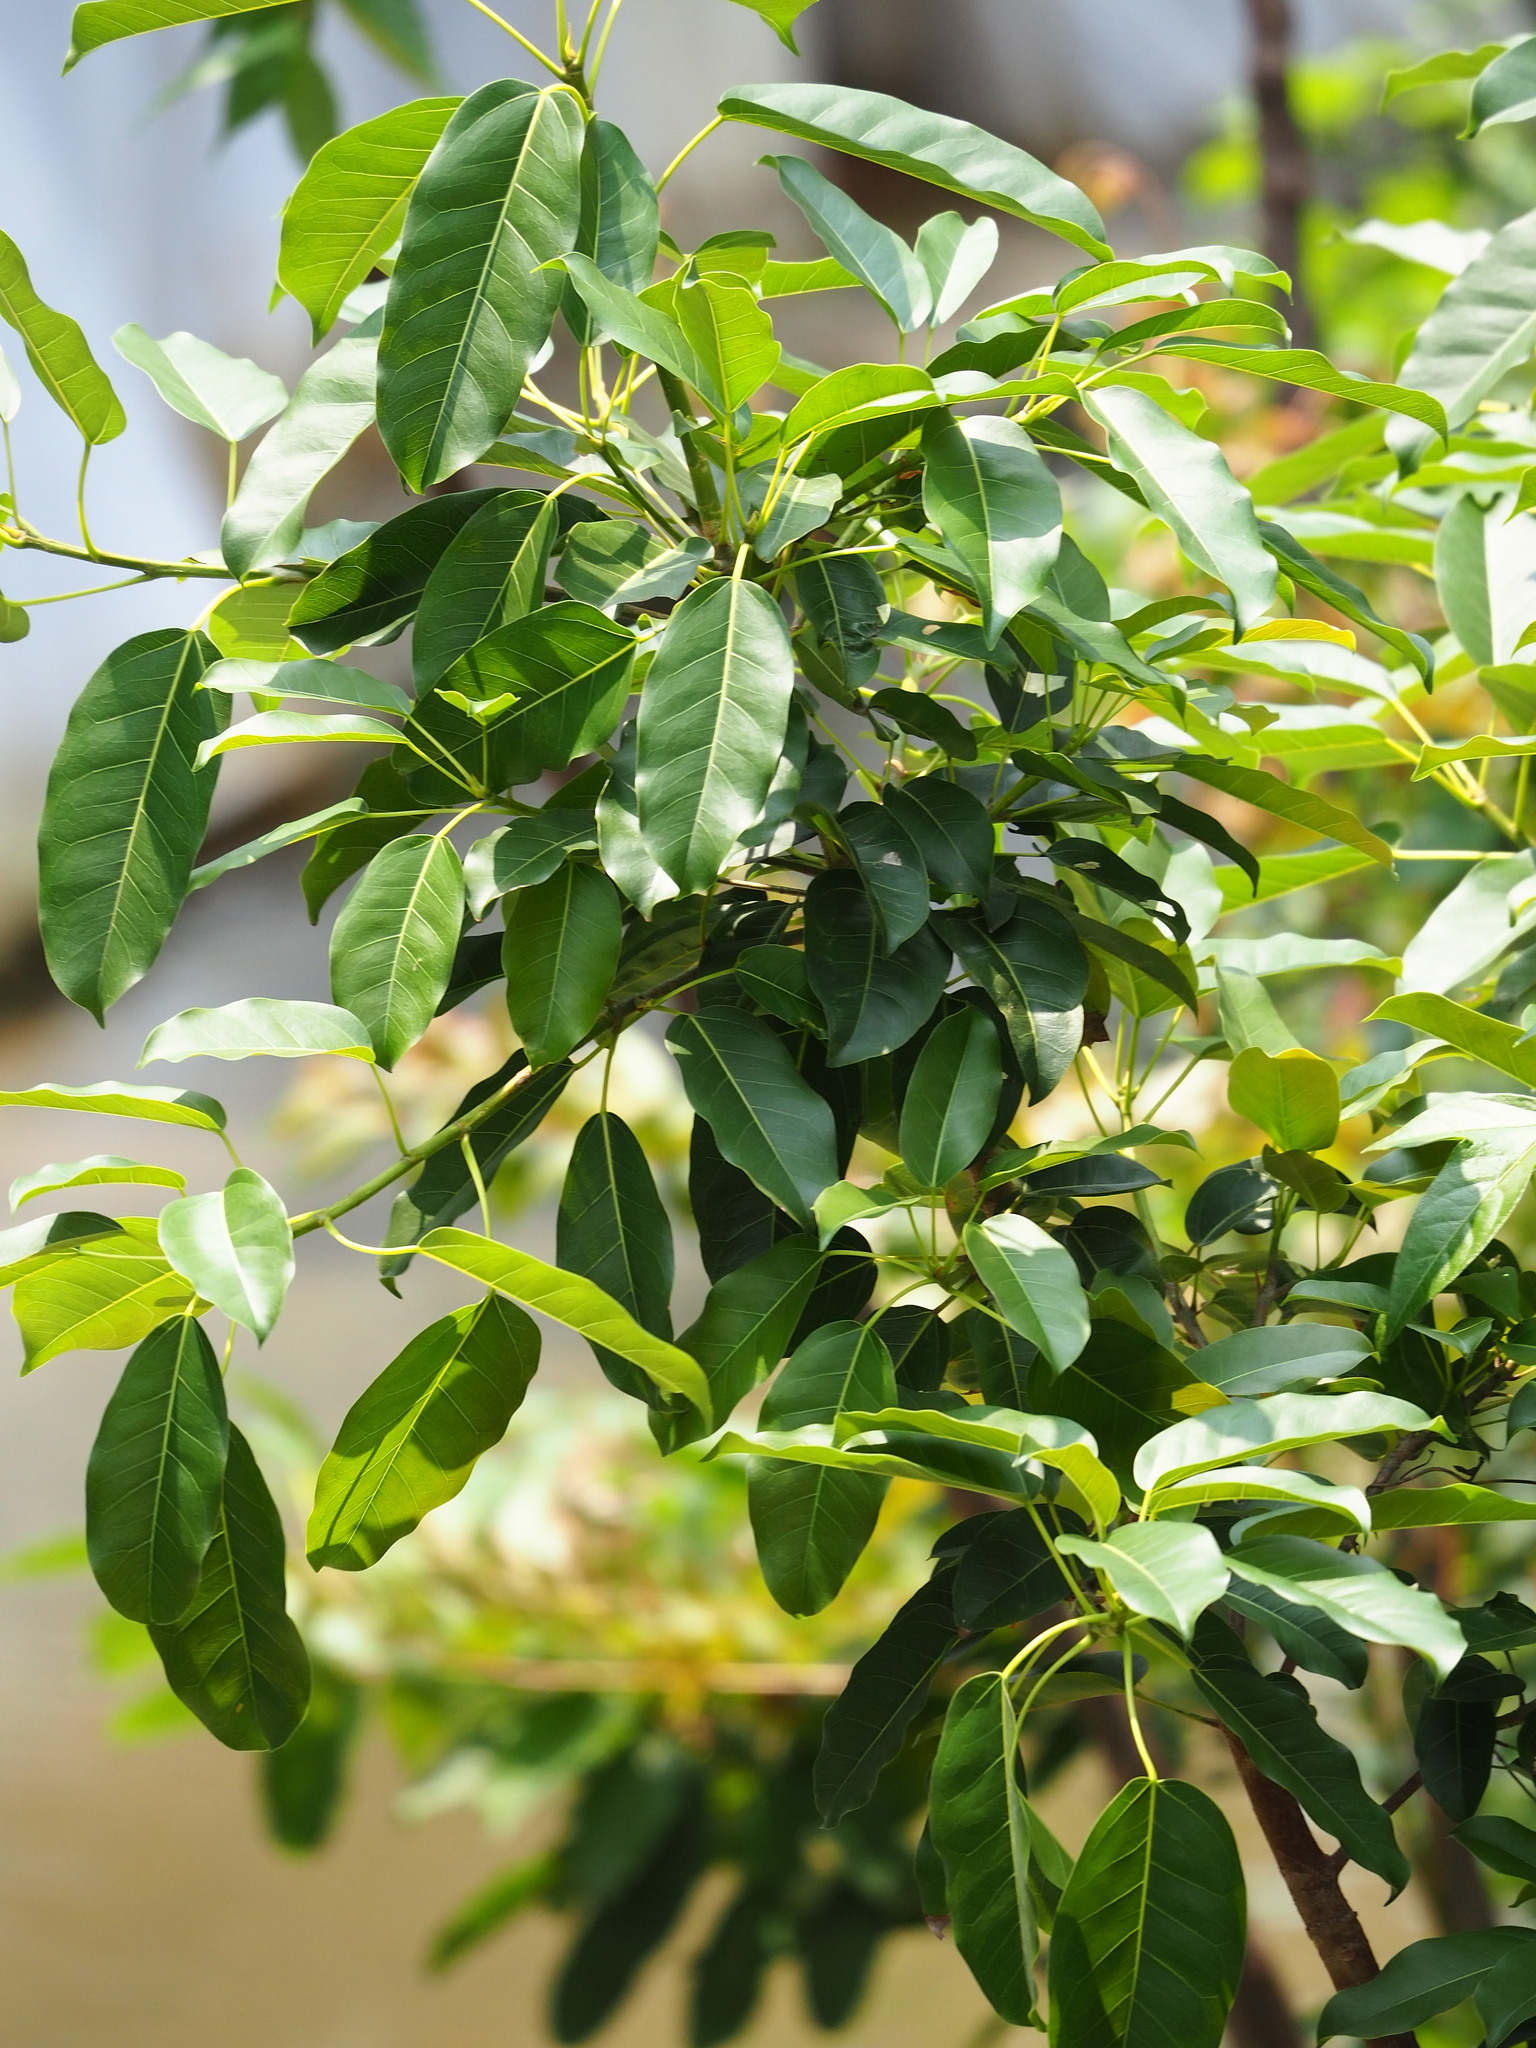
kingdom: Plantae
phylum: Tracheophyta
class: Magnoliopsida
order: Rosales
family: Moraceae
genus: Ficus
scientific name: Ficus subpisocarpa
